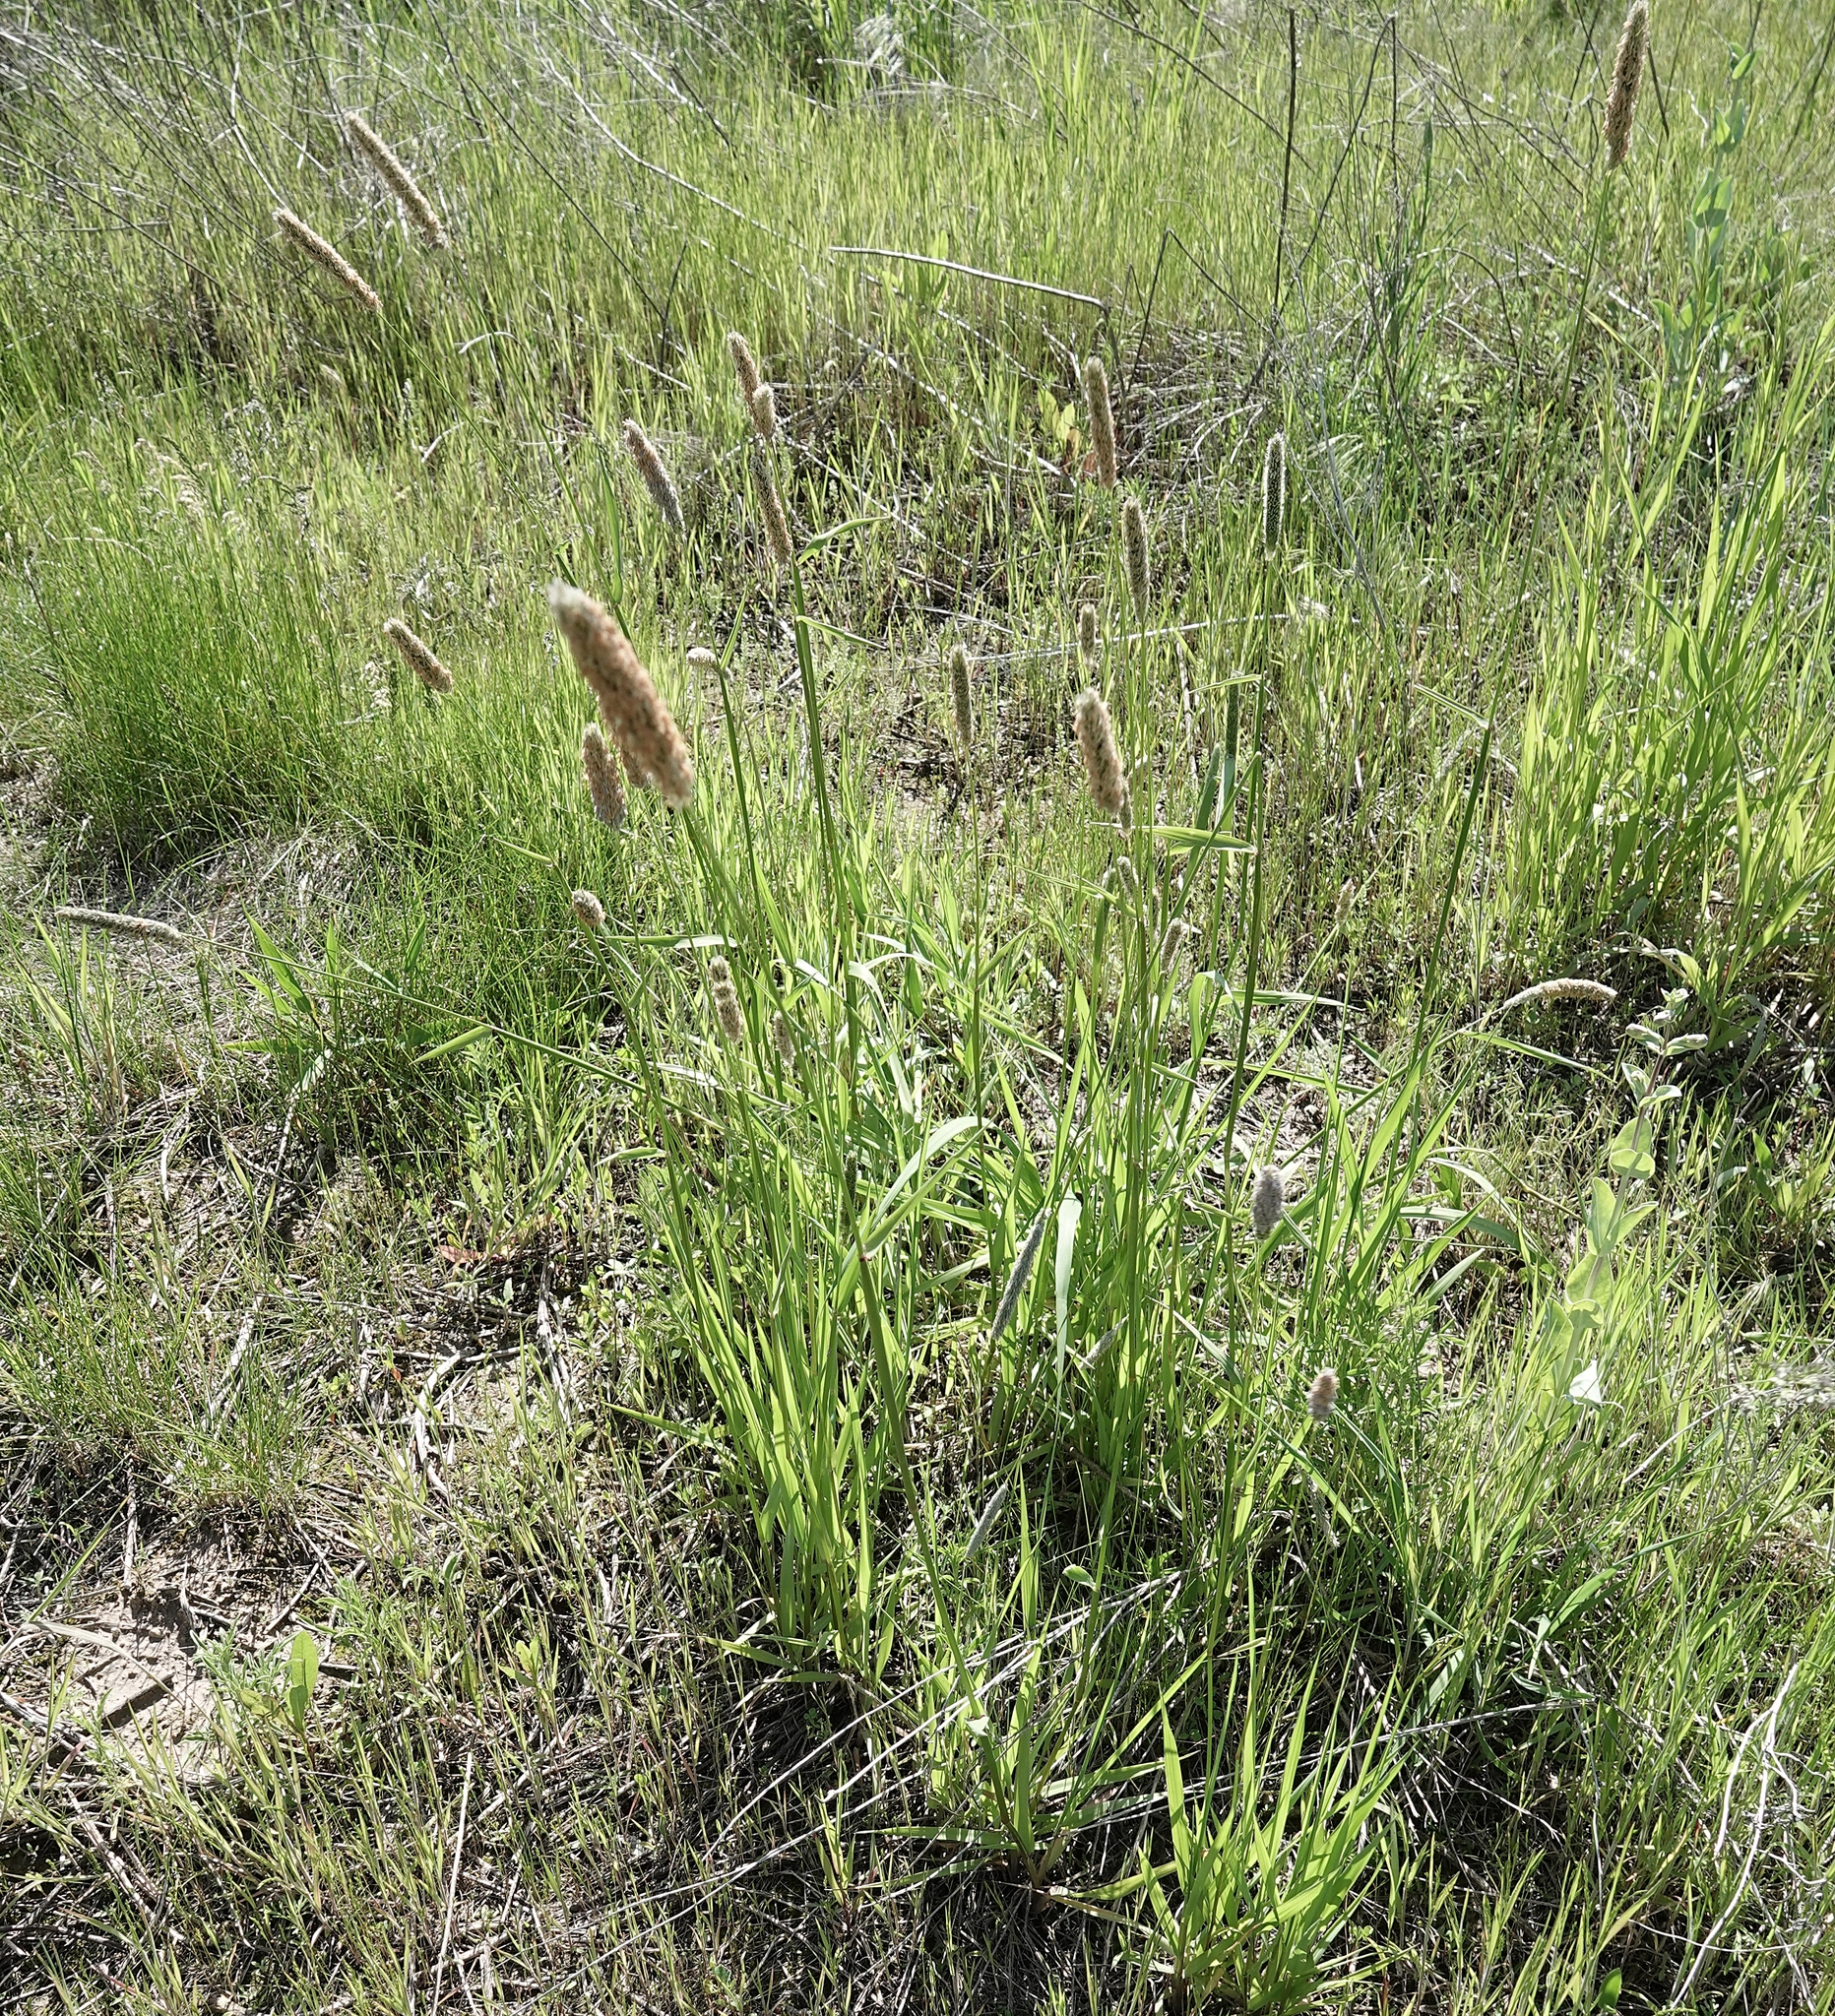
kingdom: Plantae
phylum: Tracheophyta
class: Liliopsida
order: Poales
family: Poaceae
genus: Alopecurus
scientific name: Alopecurus arundinaceus
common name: Creeping meadow foxtail
